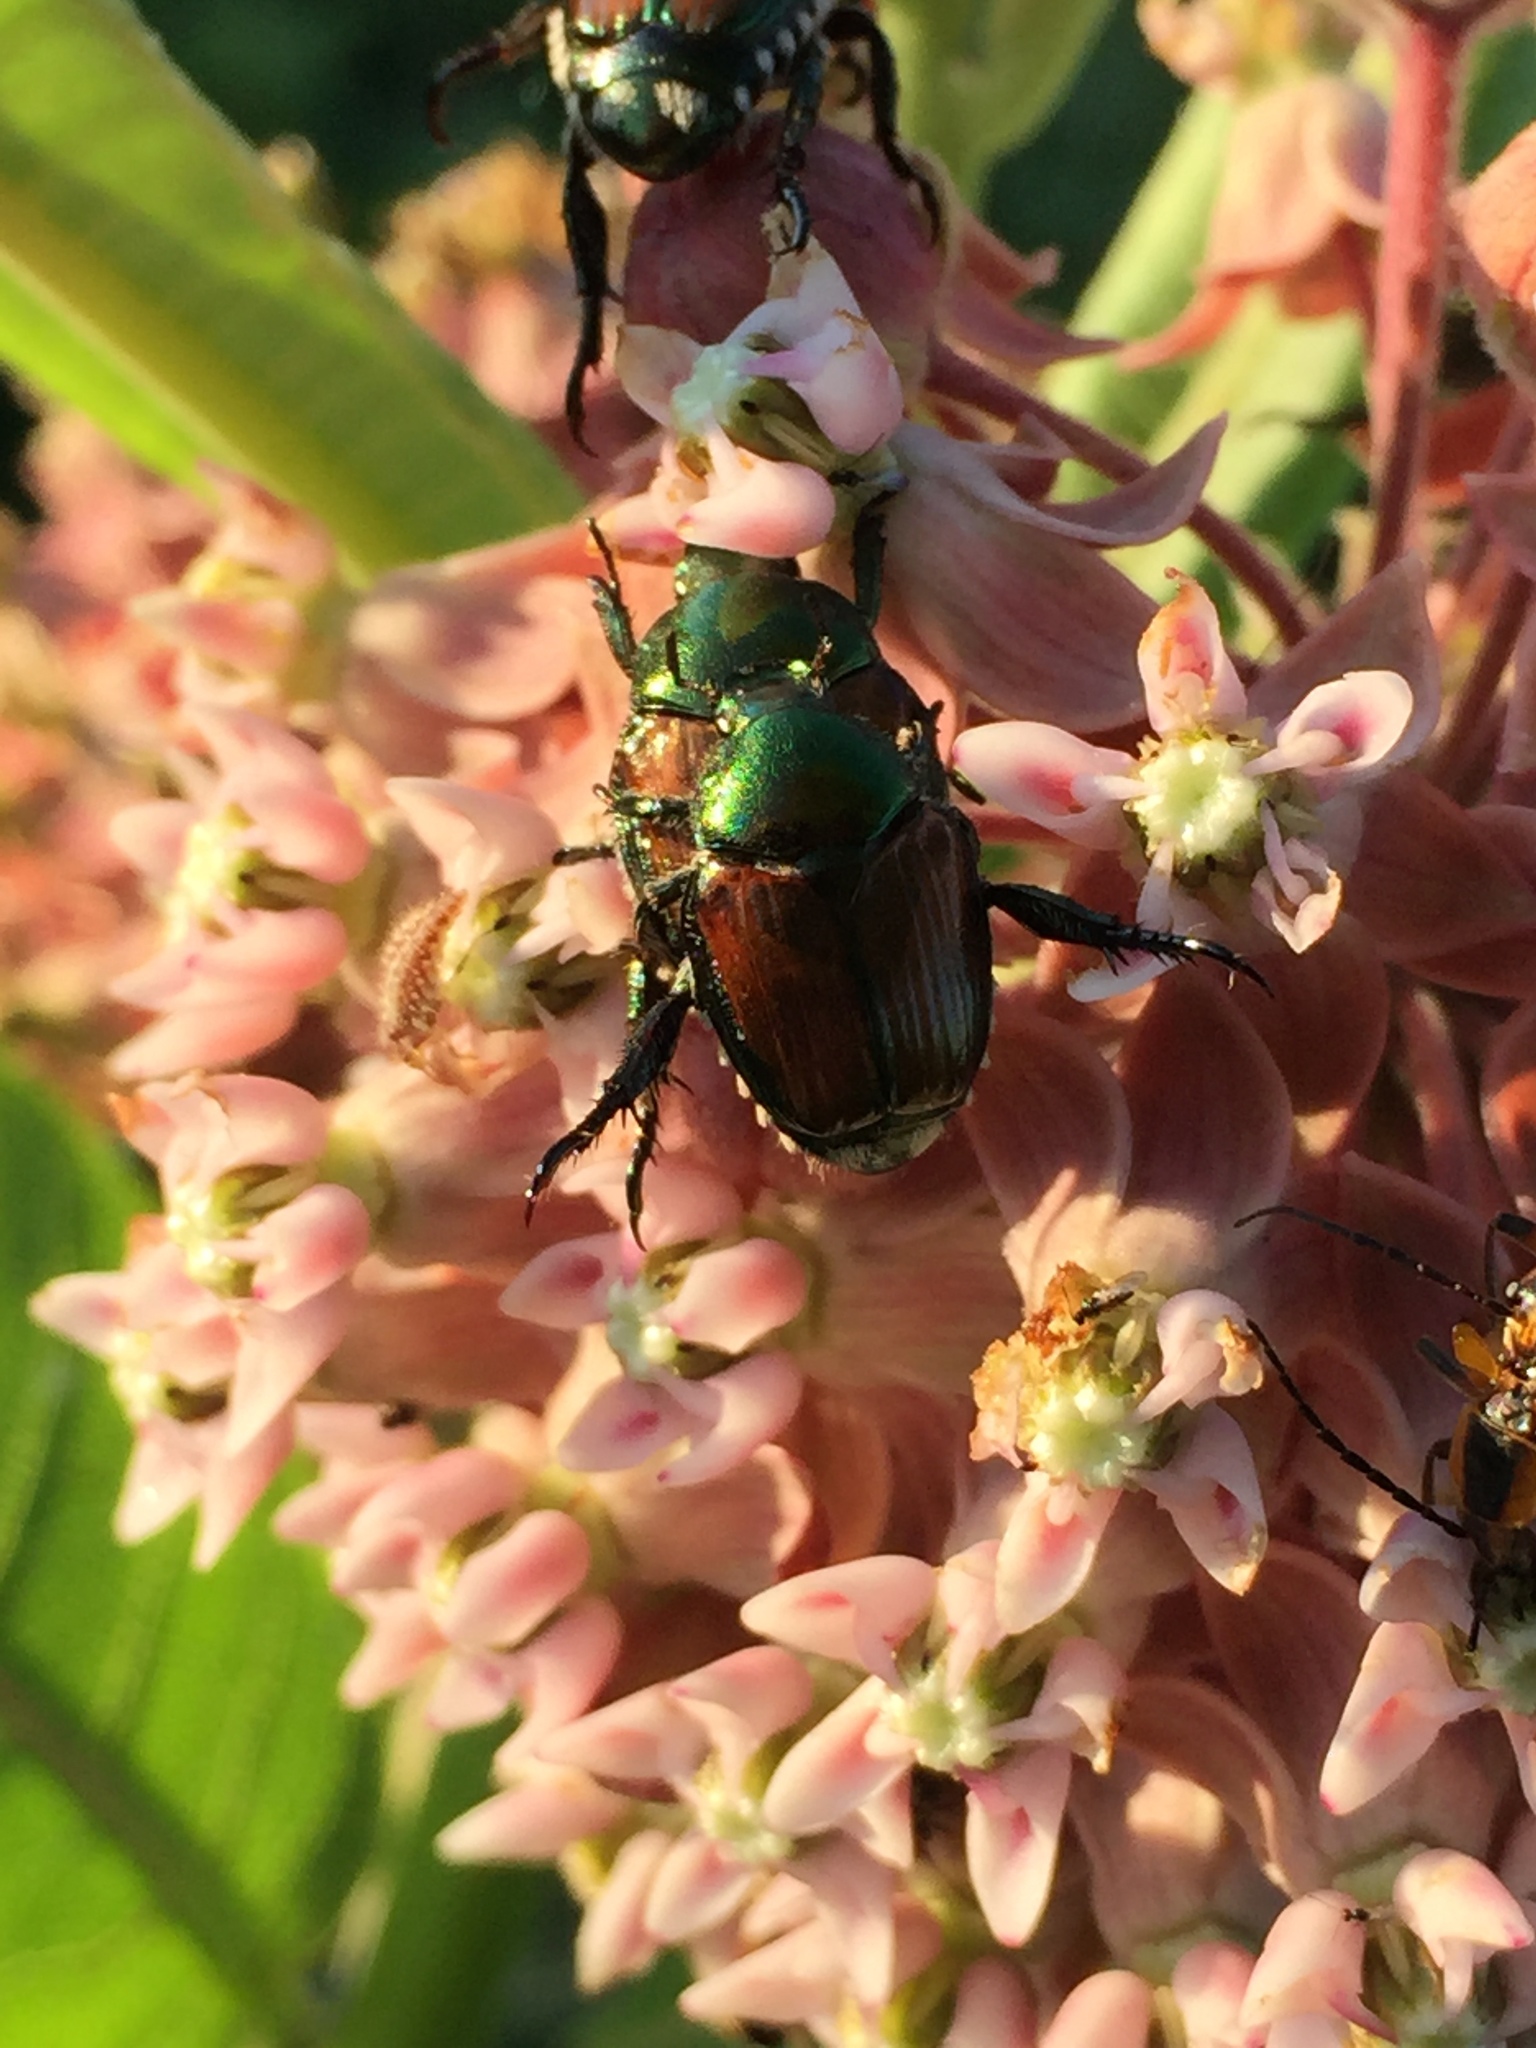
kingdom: Animalia
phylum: Arthropoda
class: Insecta
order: Coleoptera
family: Scarabaeidae
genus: Popillia
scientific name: Popillia japonica
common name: Japanese beetle
